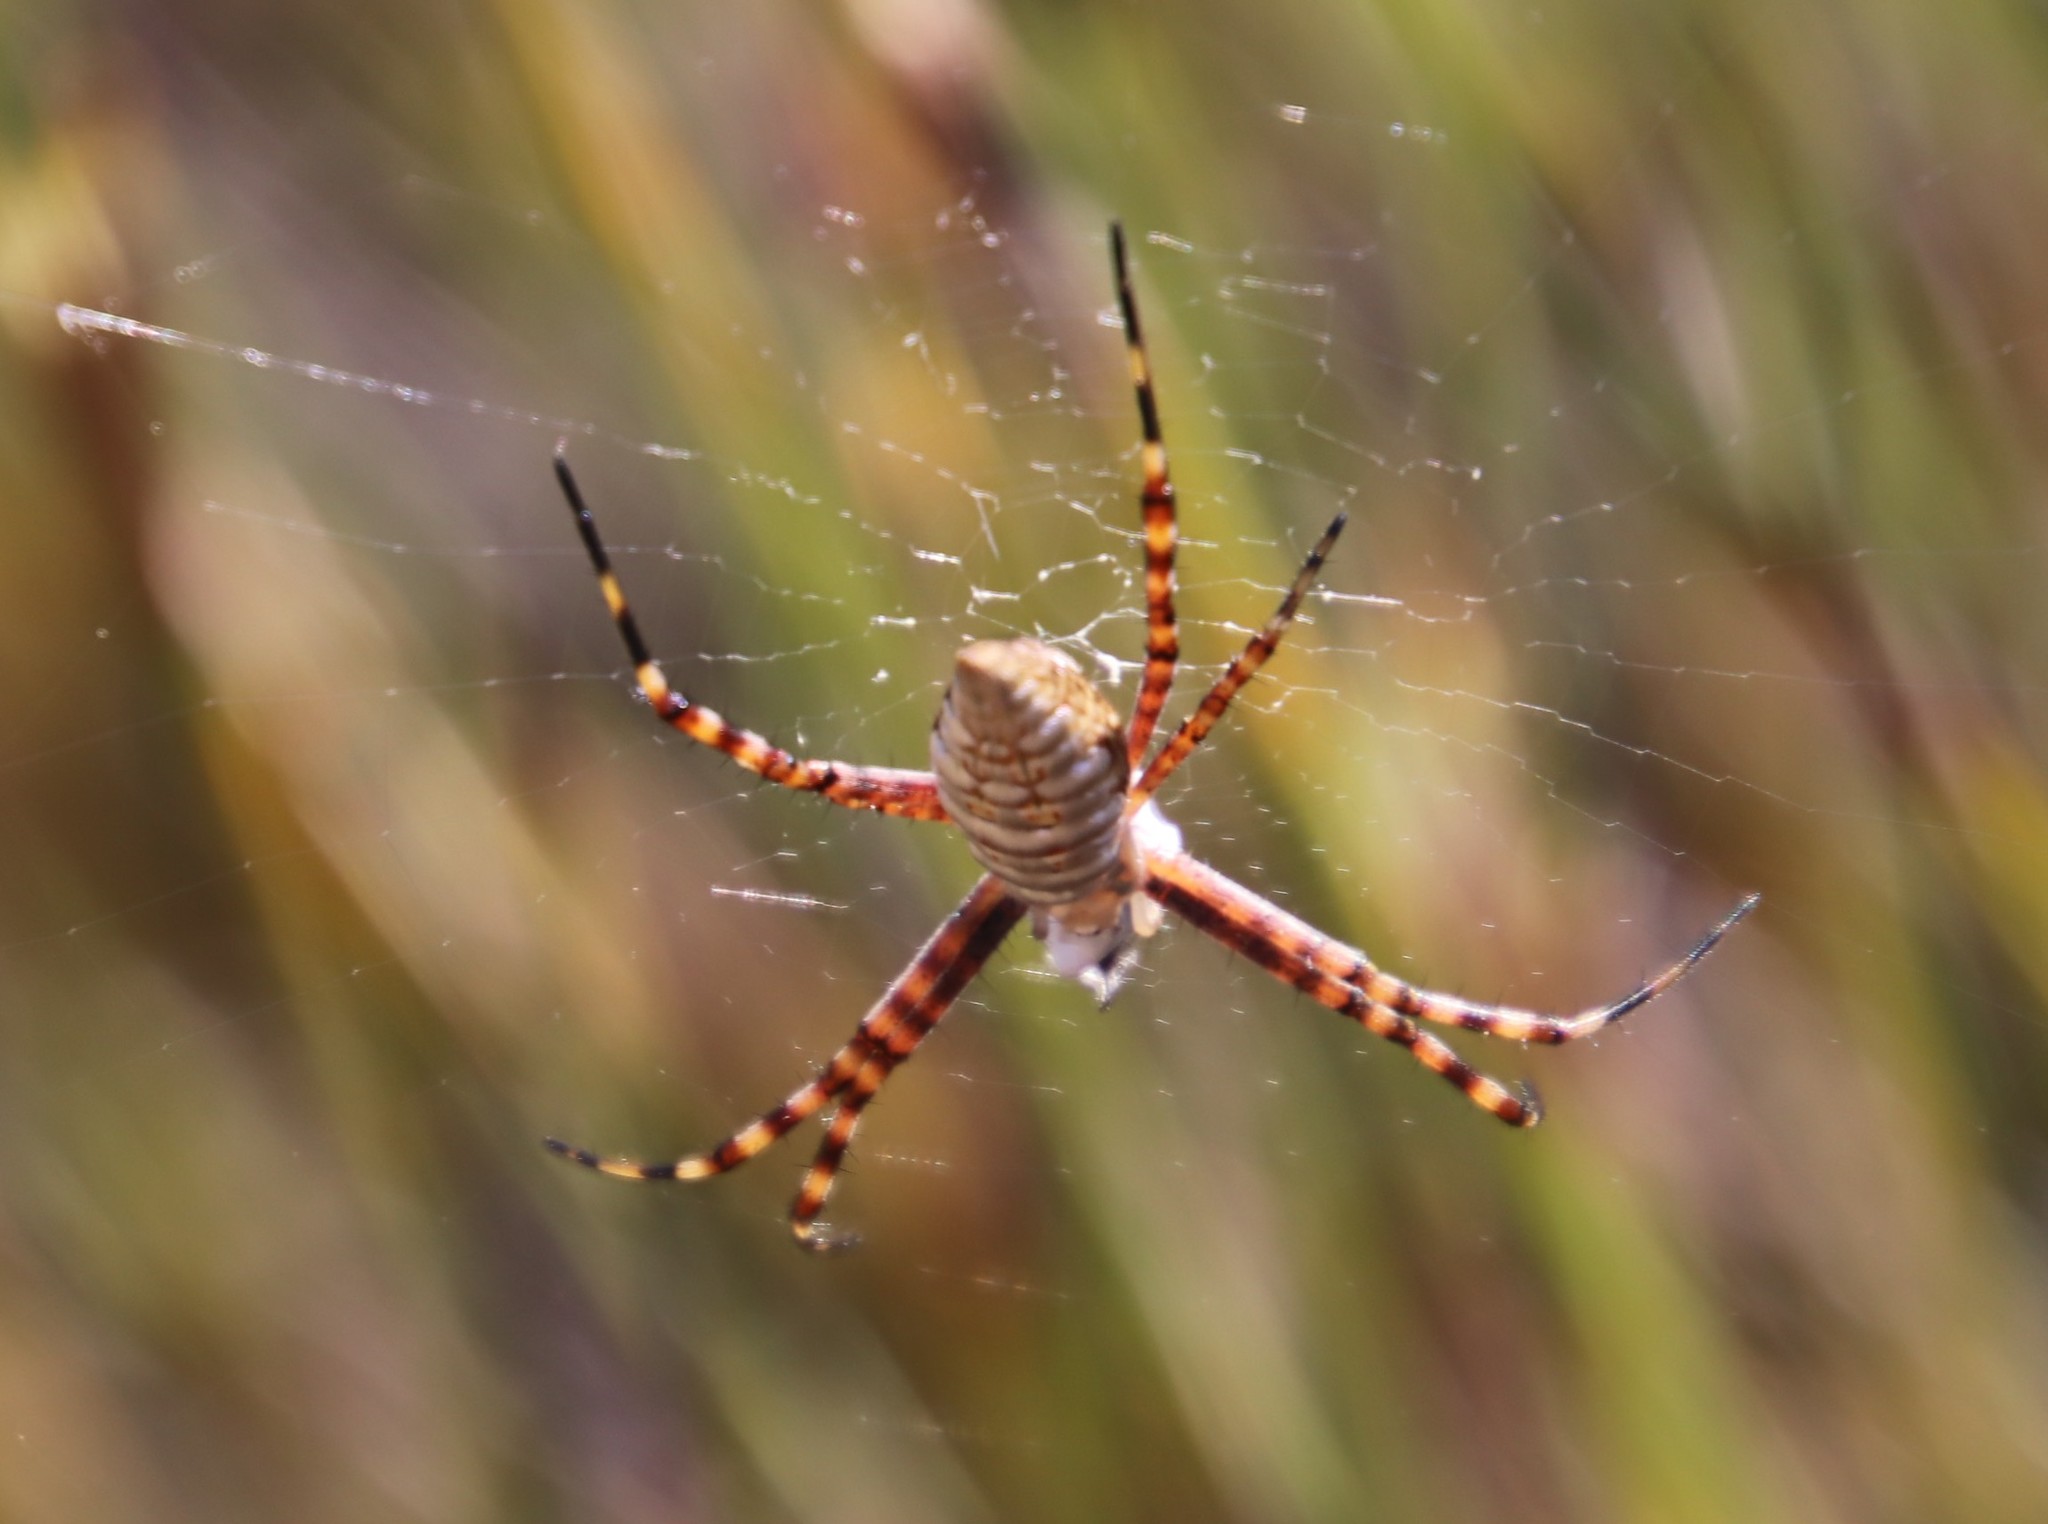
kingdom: Animalia
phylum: Arthropoda
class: Arachnida
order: Araneae
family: Araneidae
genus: Argiope
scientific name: Argiope trifasciata
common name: Banded garden spider
